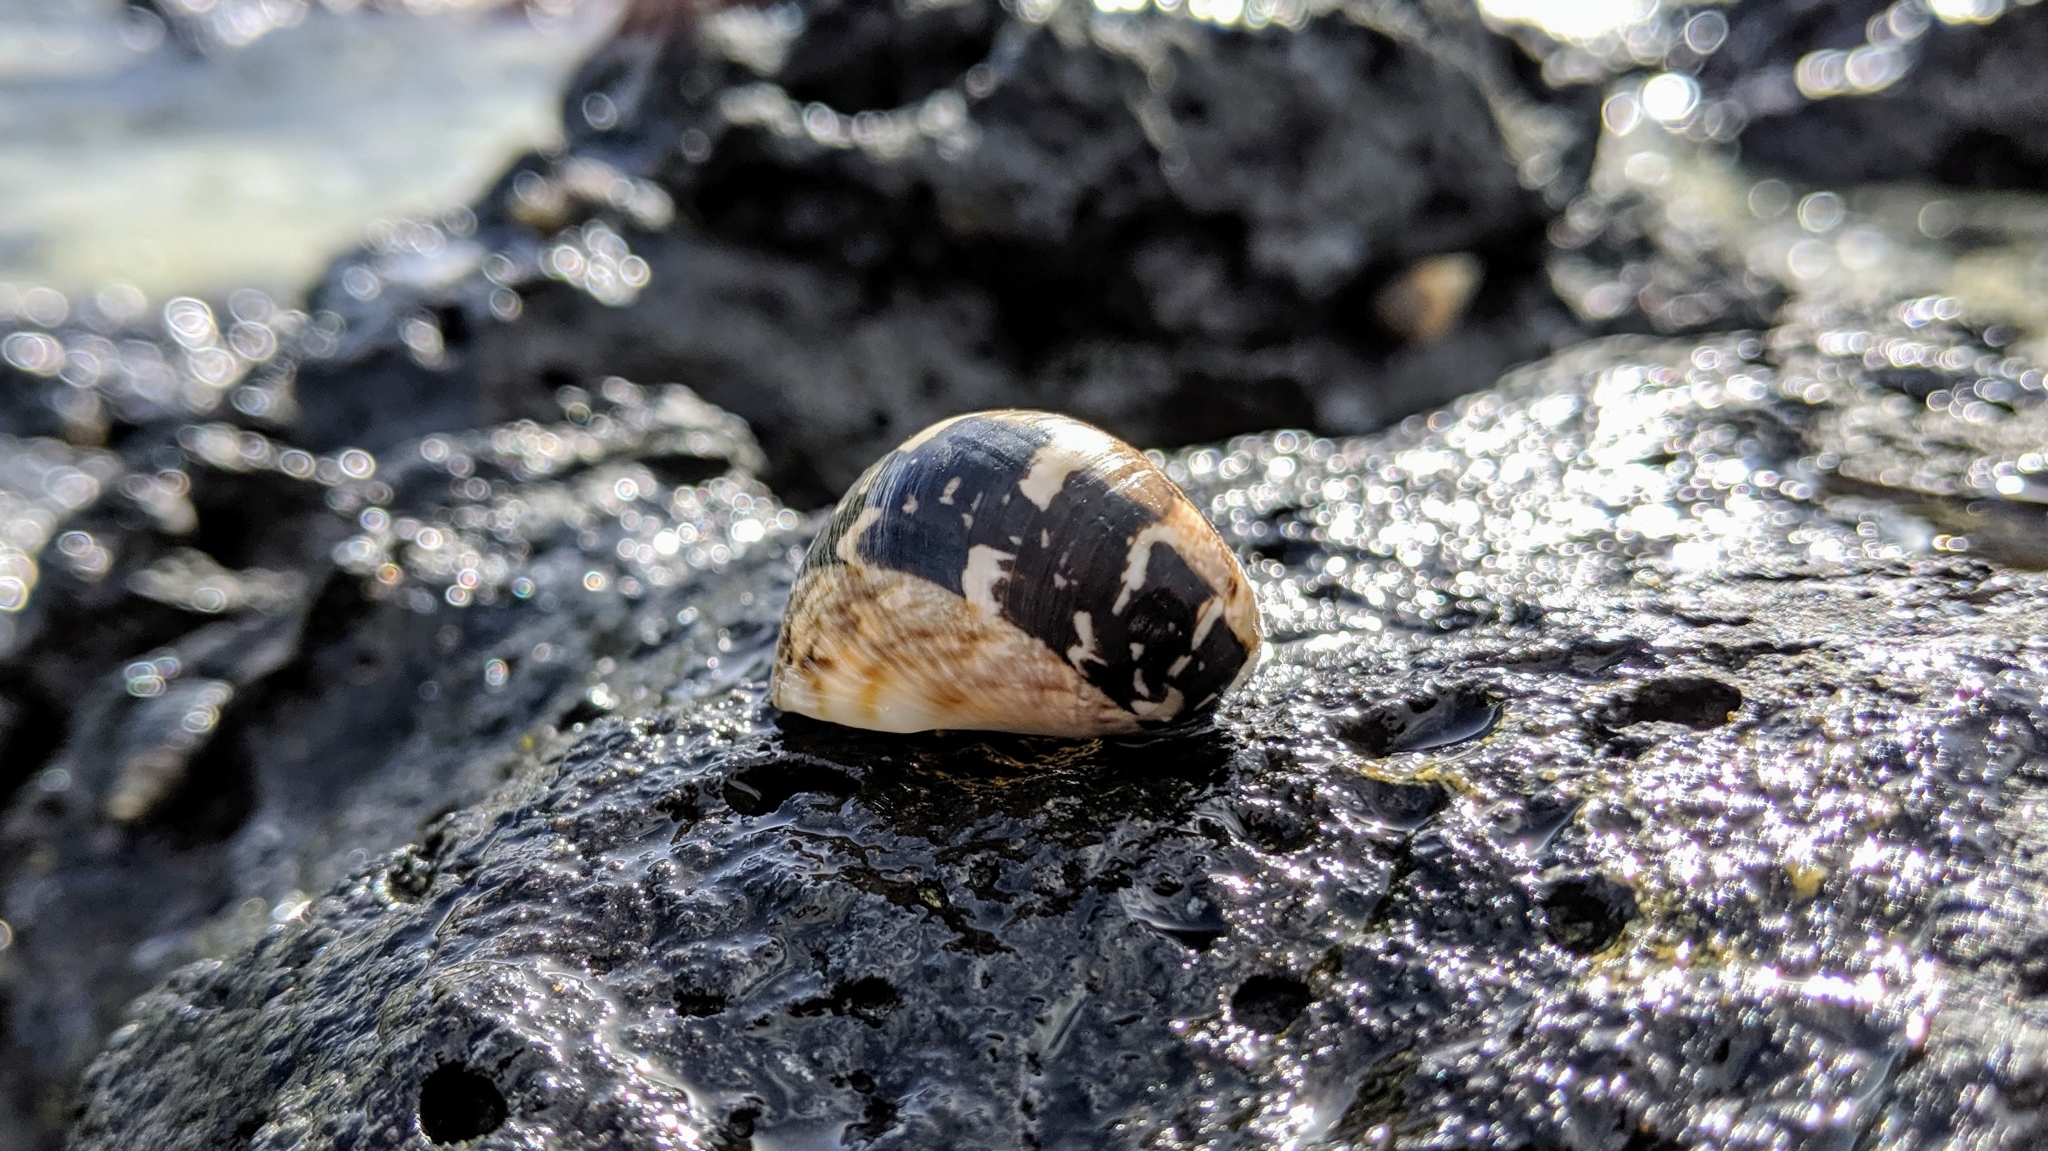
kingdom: Animalia
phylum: Mollusca
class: Gastropoda
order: Cycloneritida
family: Neritidae
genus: Nerita
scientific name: Nerita polita
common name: Polished nerite
